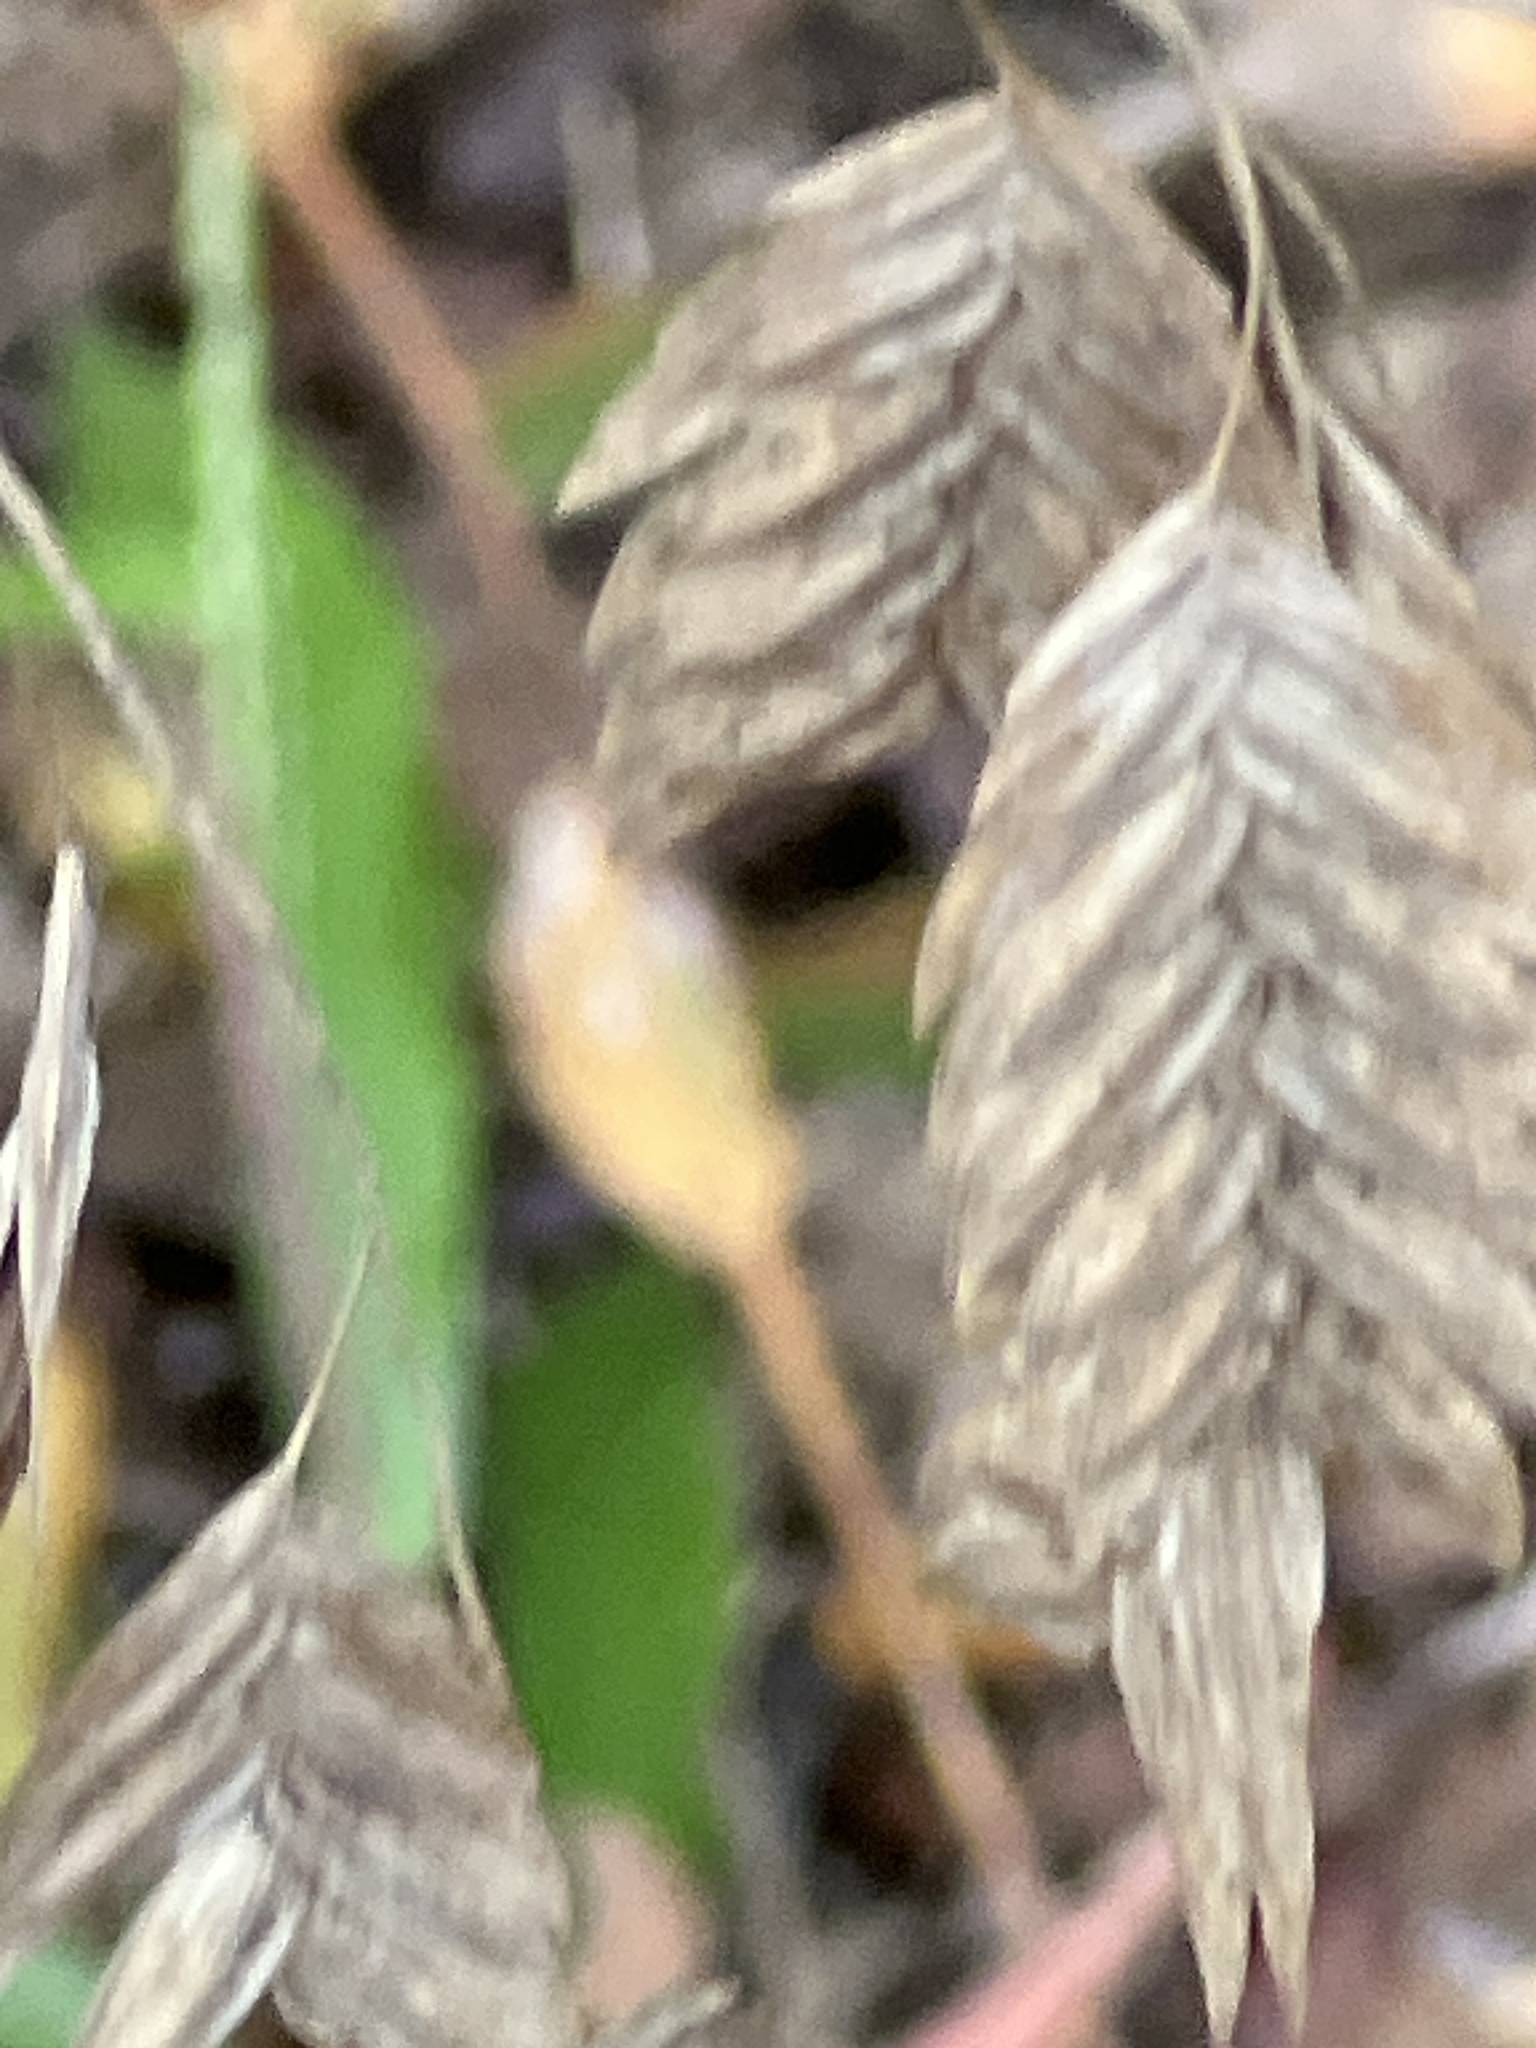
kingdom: Plantae
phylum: Tracheophyta
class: Liliopsida
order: Poales
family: Poaceae
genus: Chasmanthium
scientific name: Chasmanthium latifolium
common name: Broad-leaved chasmanthium
